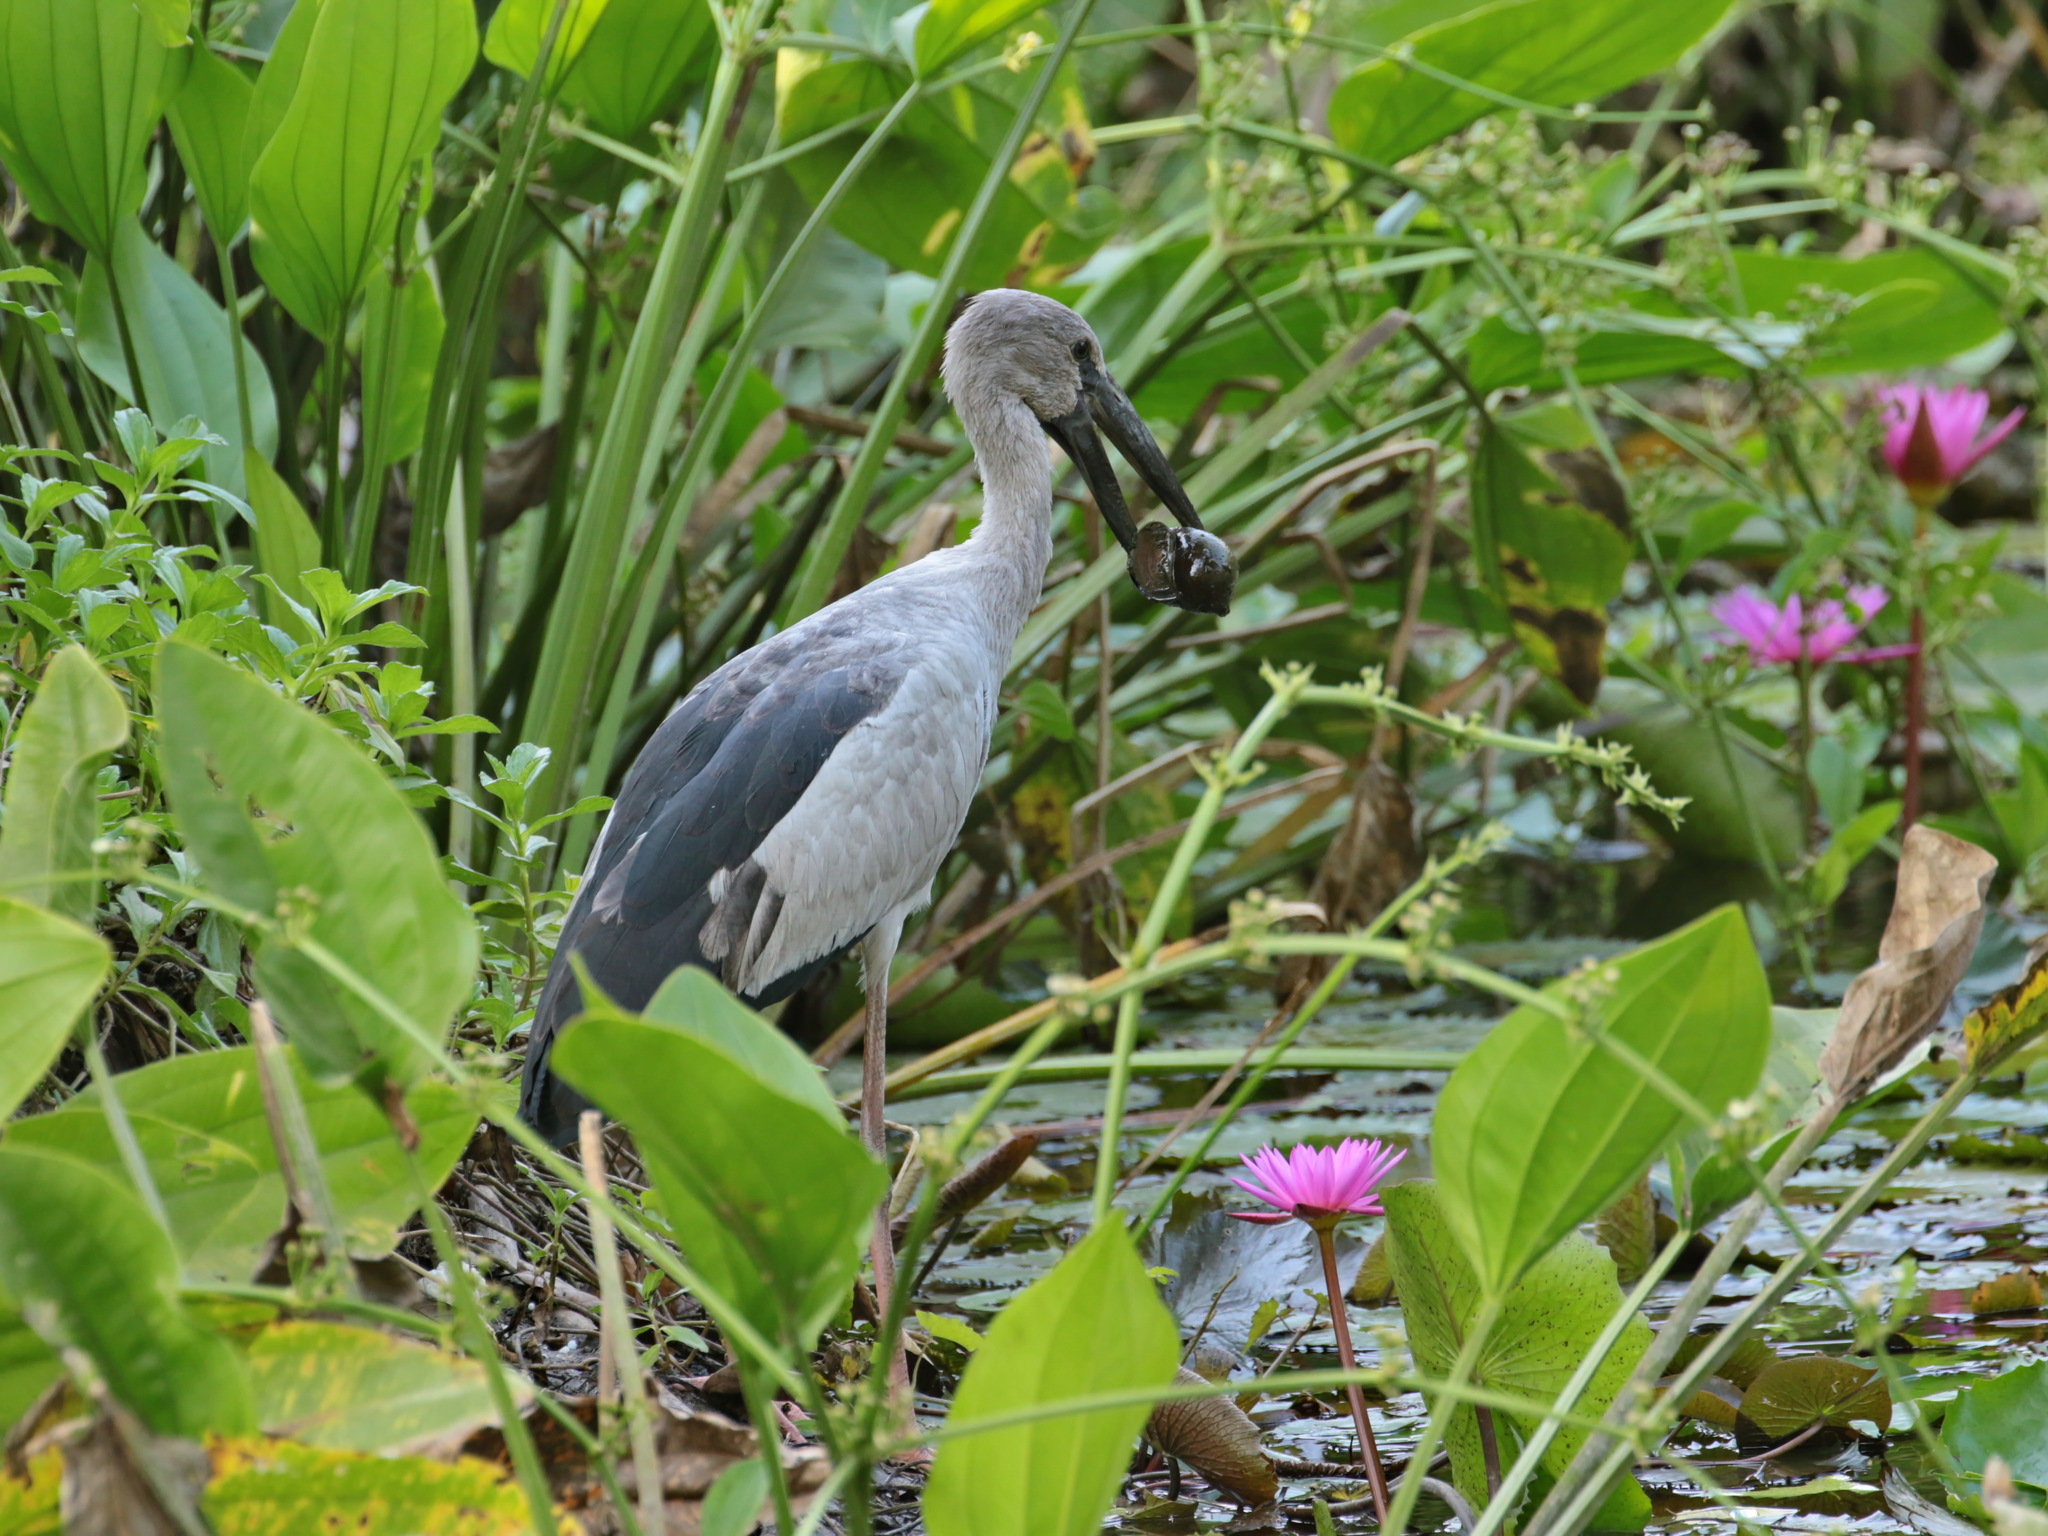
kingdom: Animalia
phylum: Chordata
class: Aves
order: Ciconiiformes
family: Ciconiidae
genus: Anastomus
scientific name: Anastomus oscitans
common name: Asian openbill
